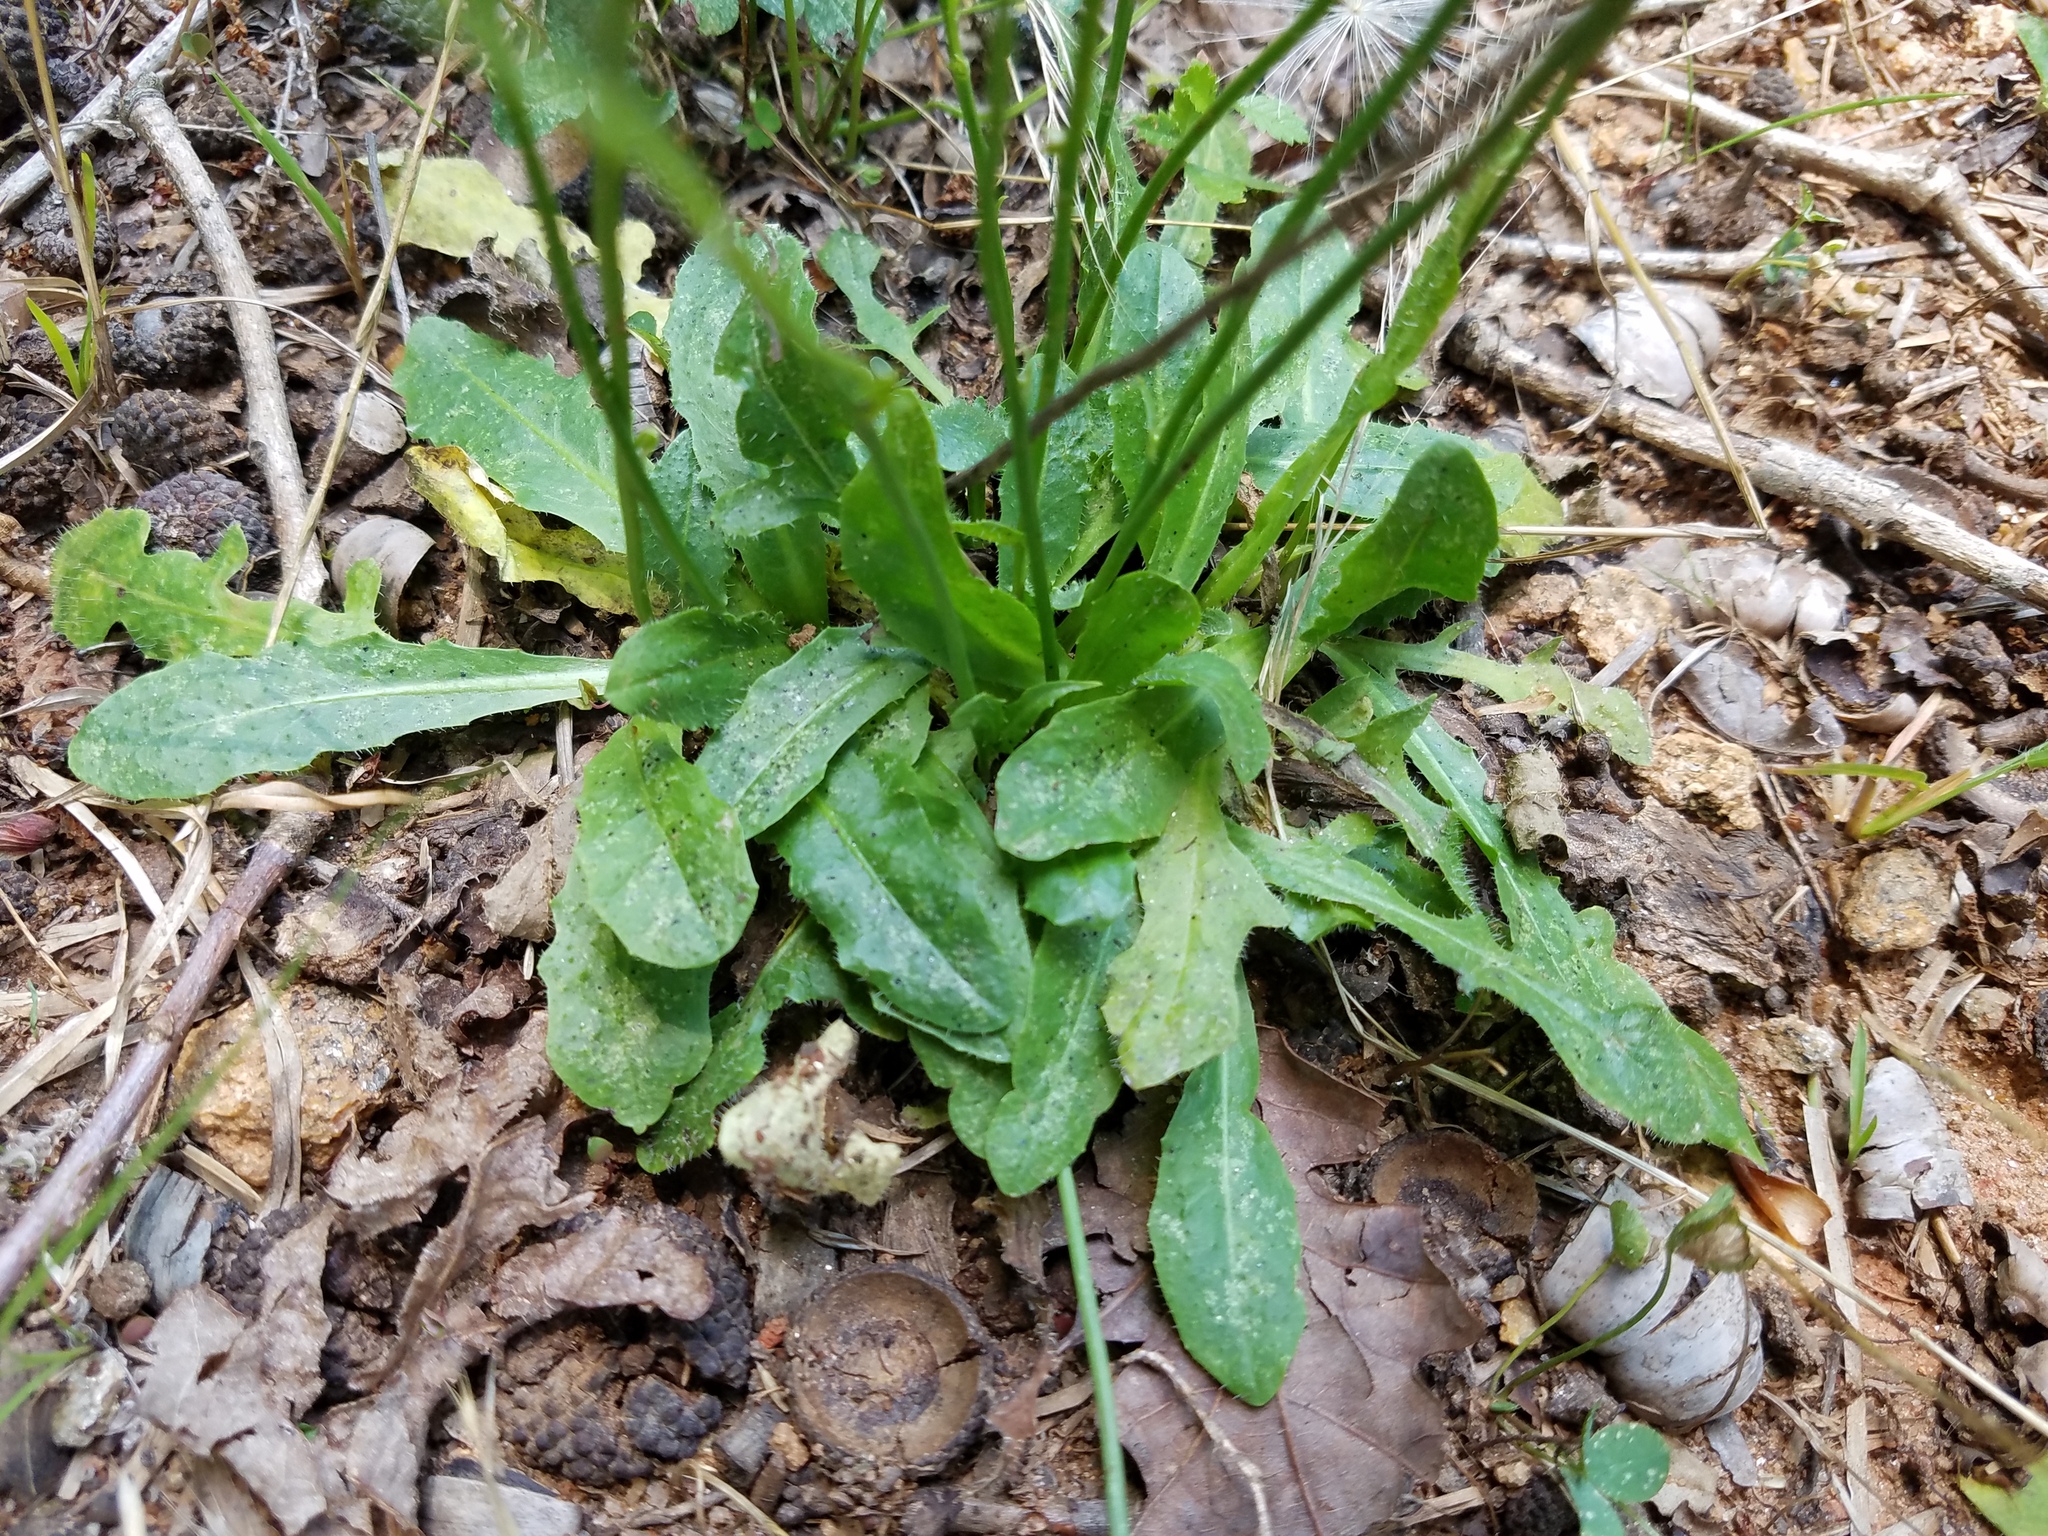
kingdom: Plantae
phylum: Tracheophyta
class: Magnoliopsida
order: Asterales
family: Asteraceae
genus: Hypochaeris
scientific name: Hypochaeris radicata
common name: Flatweed
